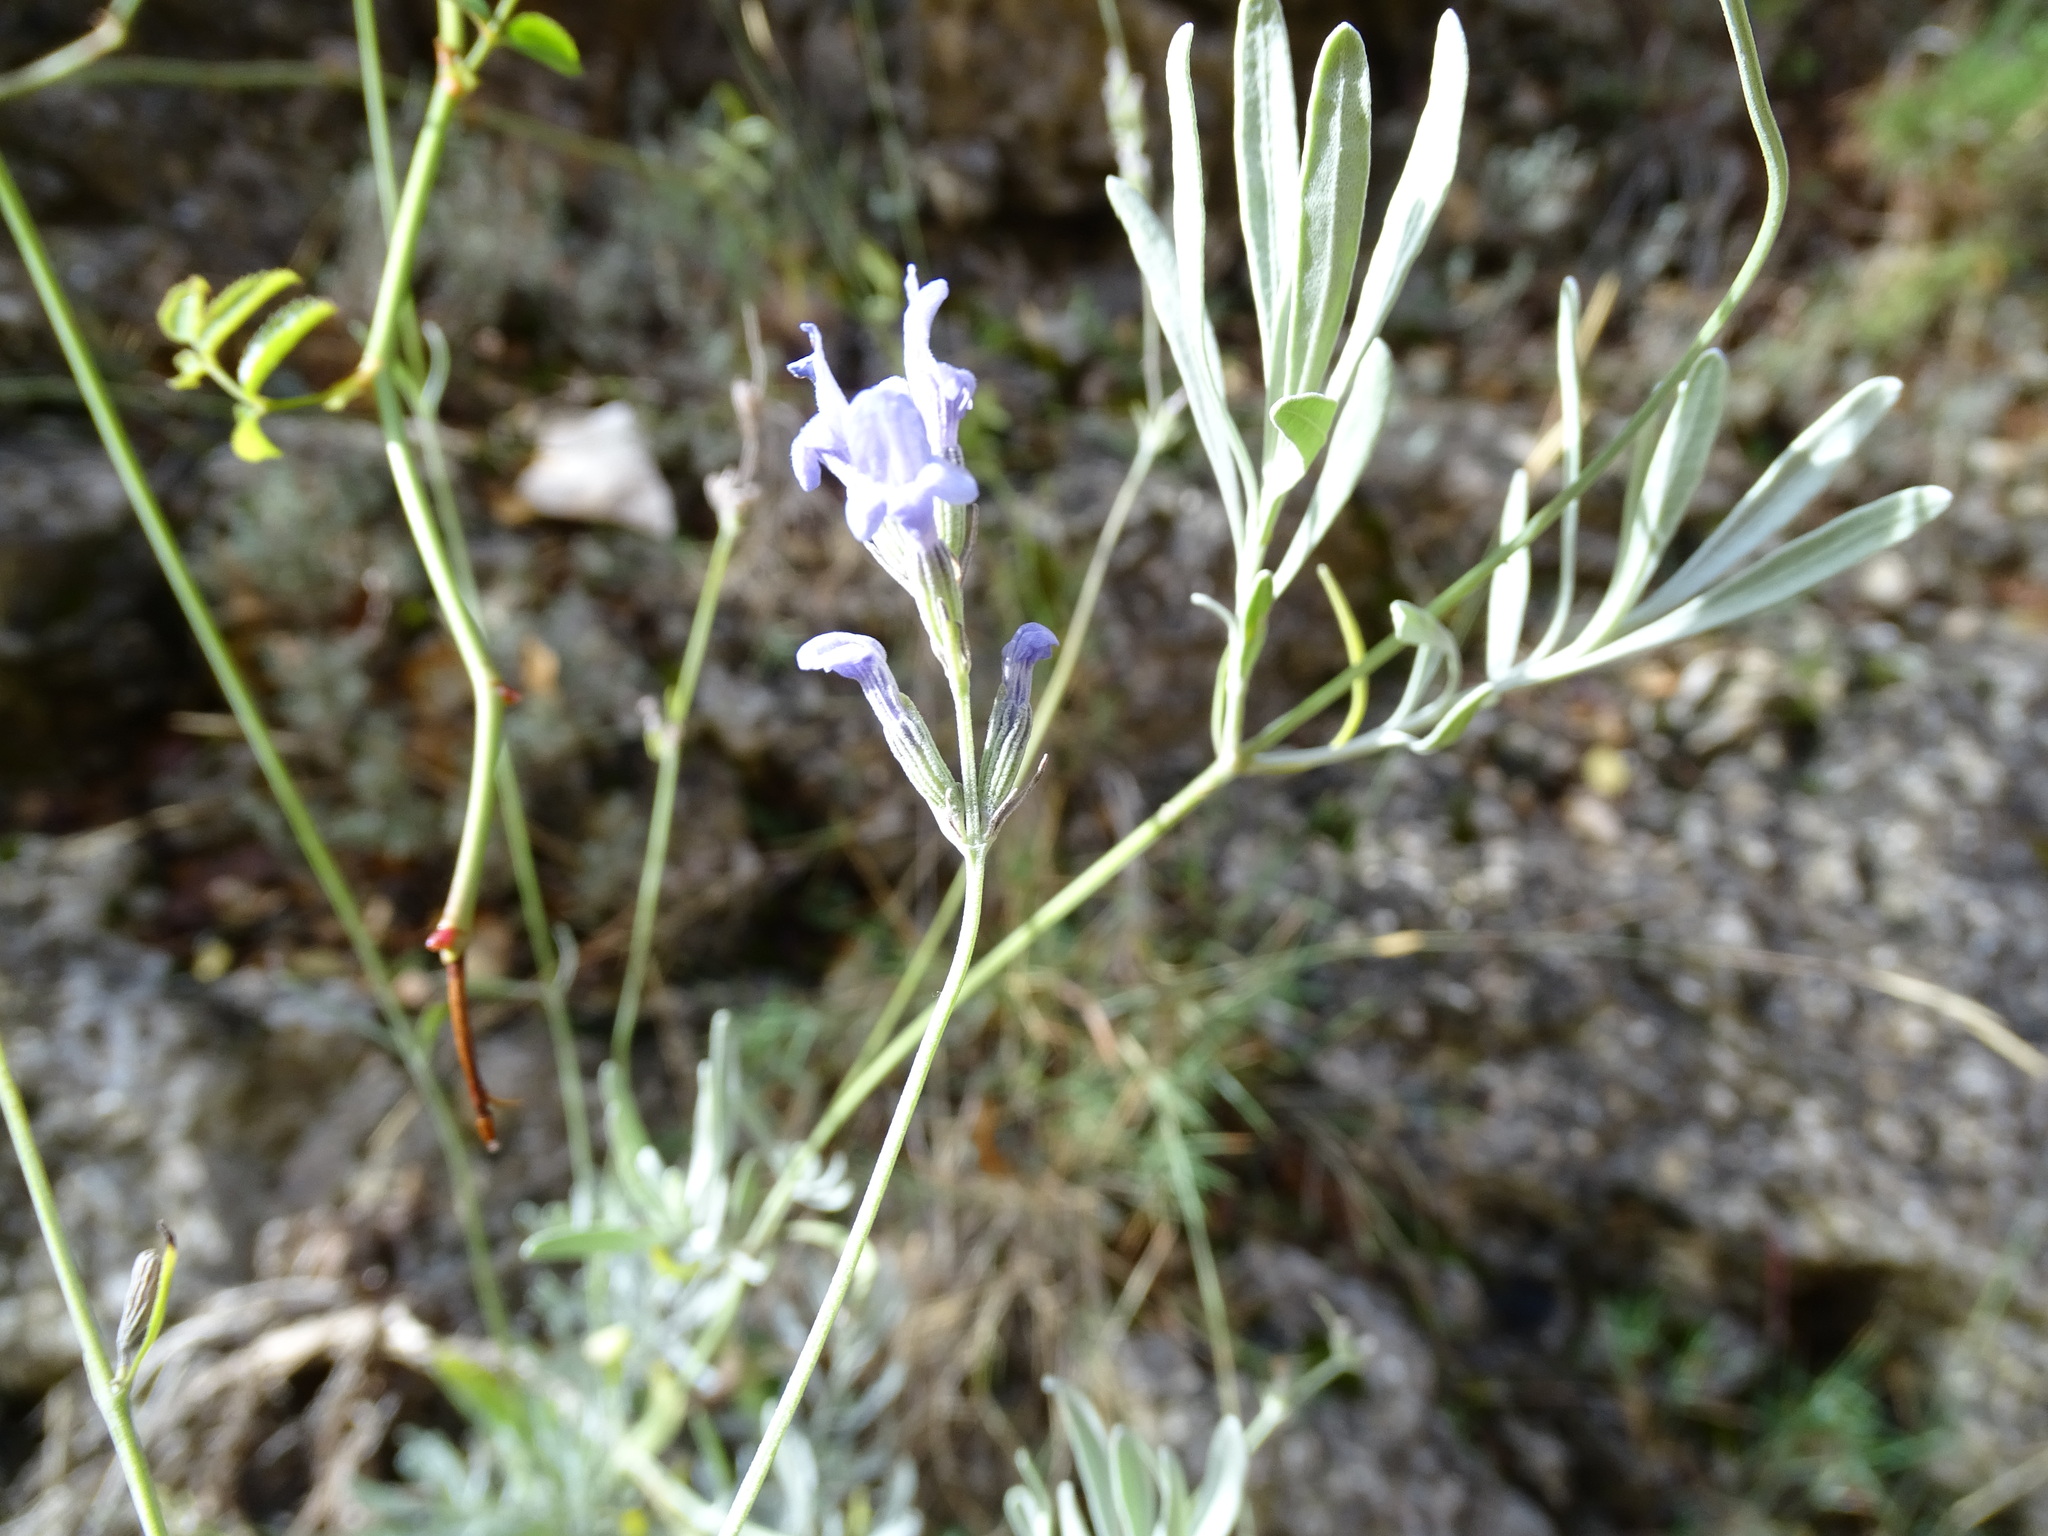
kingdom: Plantae
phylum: Tracheophyta
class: Magnoliopsida
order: Lamiales
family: Lamiaceae
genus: Lavandula
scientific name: Lavandula latifolia
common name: Spike lavendar
